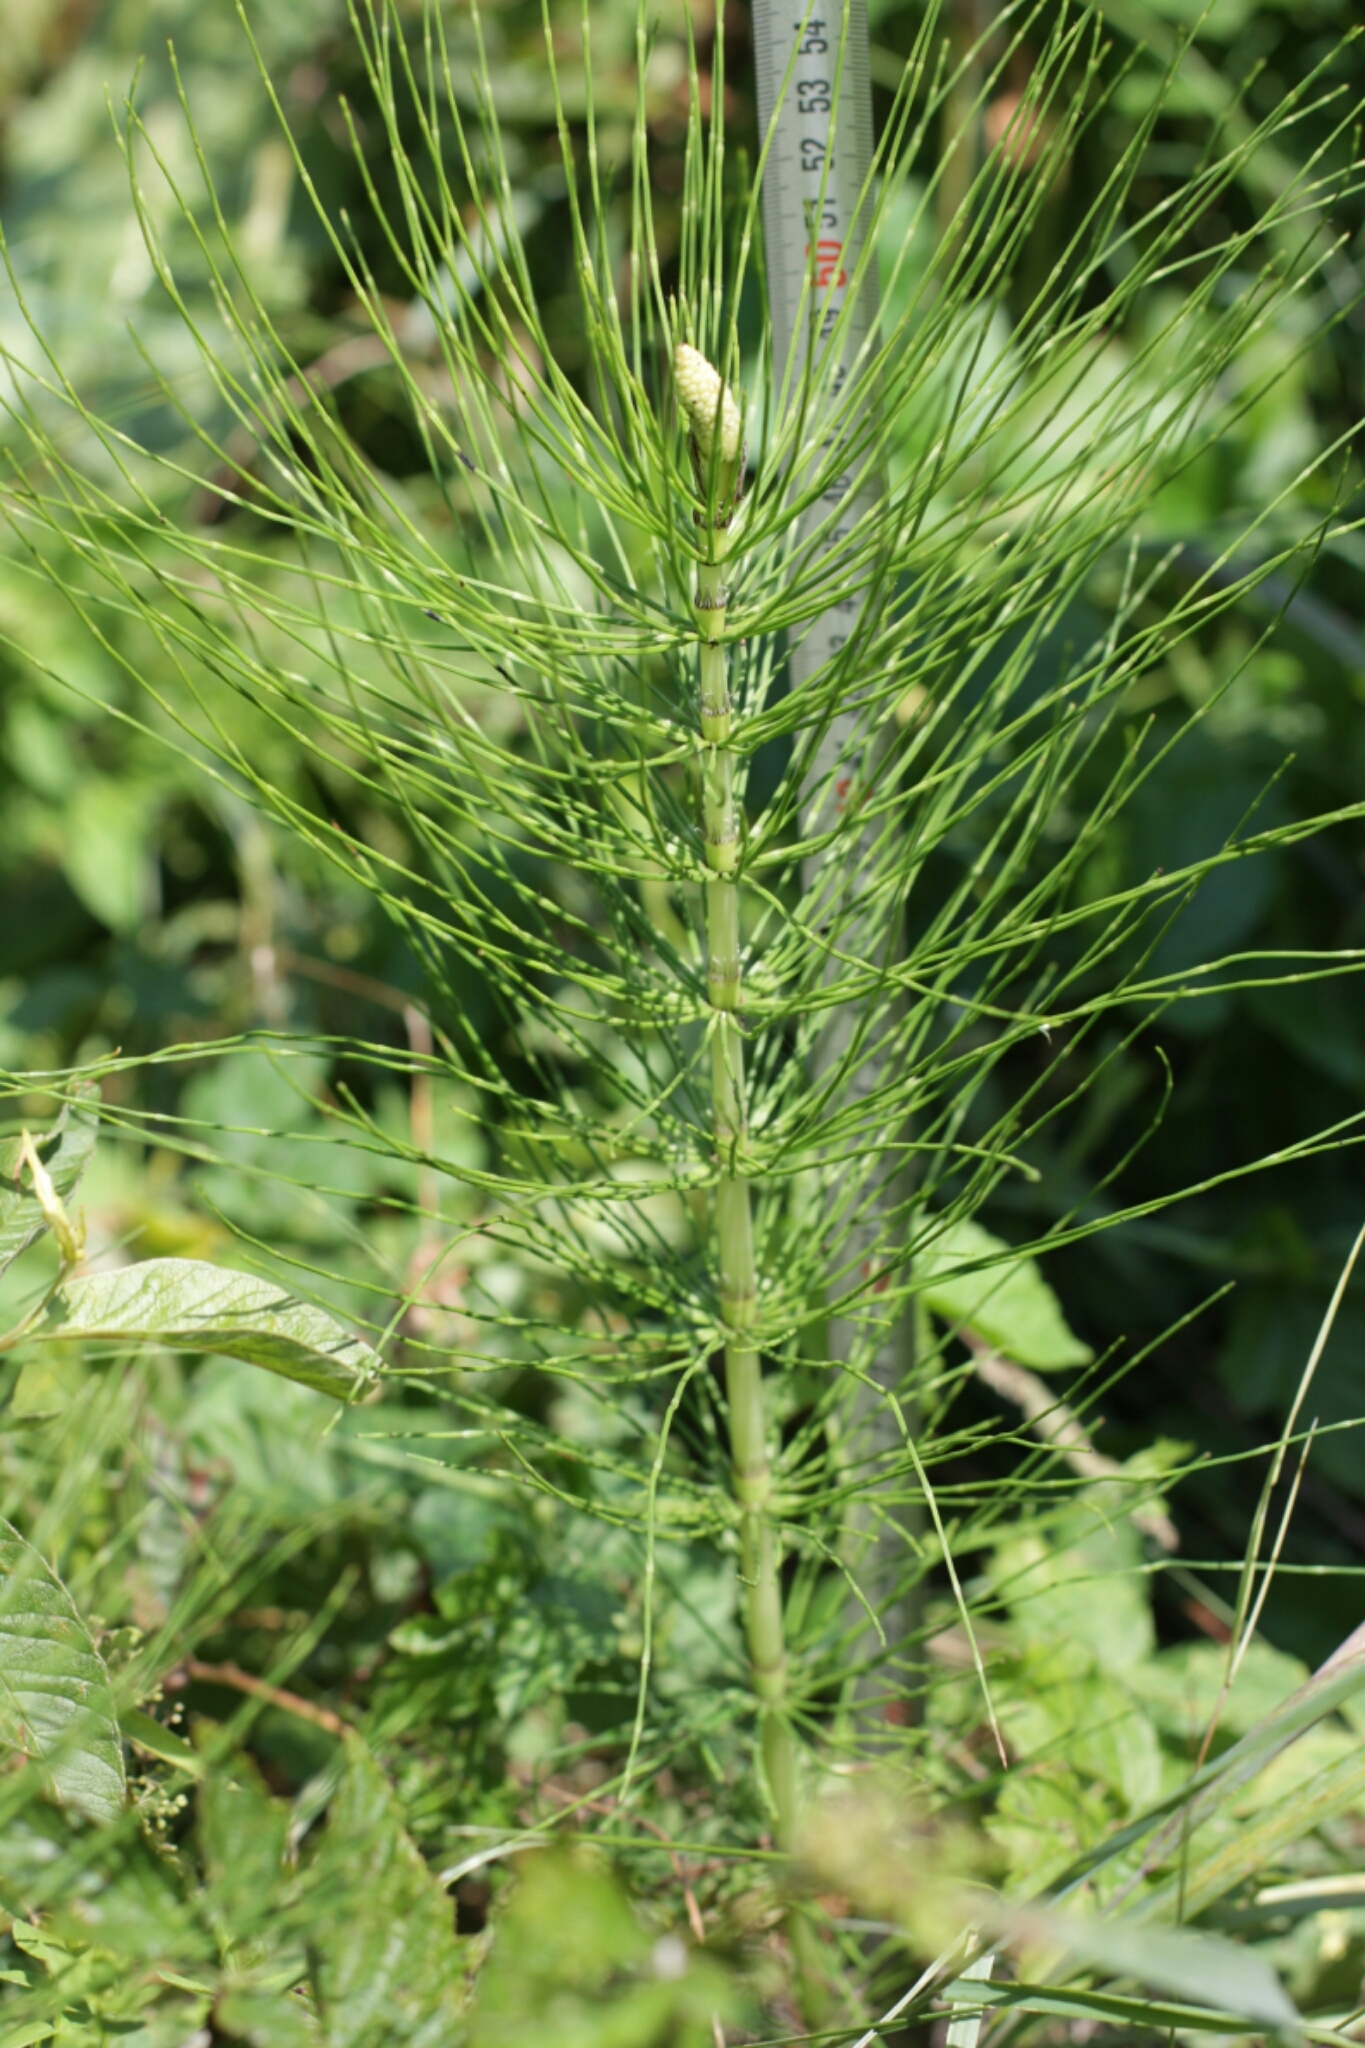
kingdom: Plantae
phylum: Tracheophyta
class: Polypodiopsida
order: Equisetales
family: Equisetaceae
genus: Equisetum
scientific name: Equisetum telmateia
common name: Great horsetail
